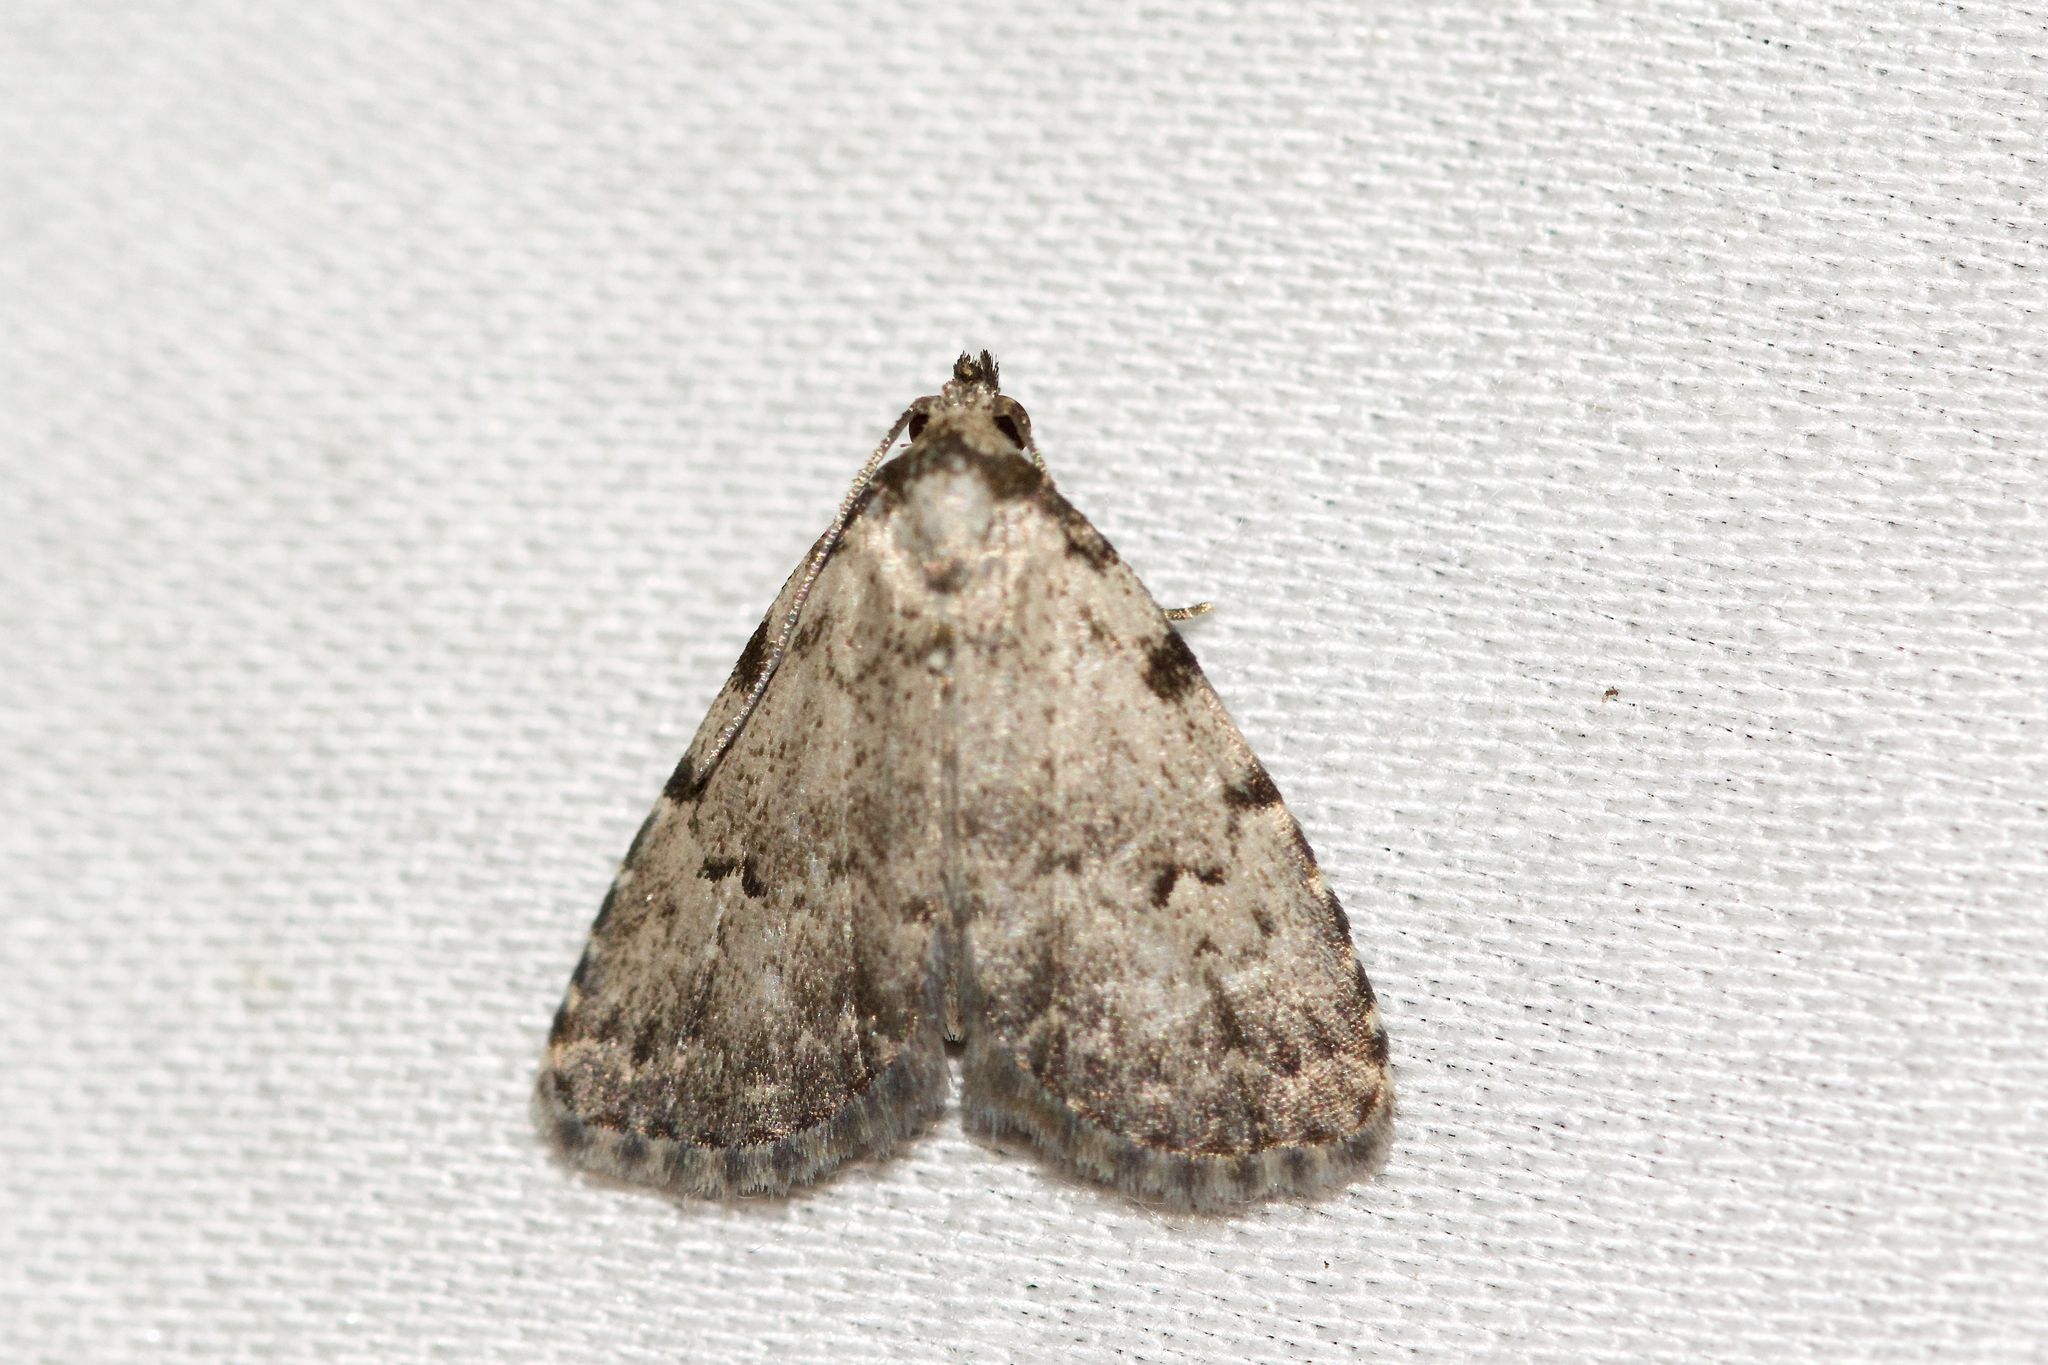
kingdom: Animalia
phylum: Arthropoda
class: Insecta
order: Lepidoptera
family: Erebidae
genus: Dyspyralis
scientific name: Dyspyralis puncticosta
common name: Spot-edged dyspyralis moth
